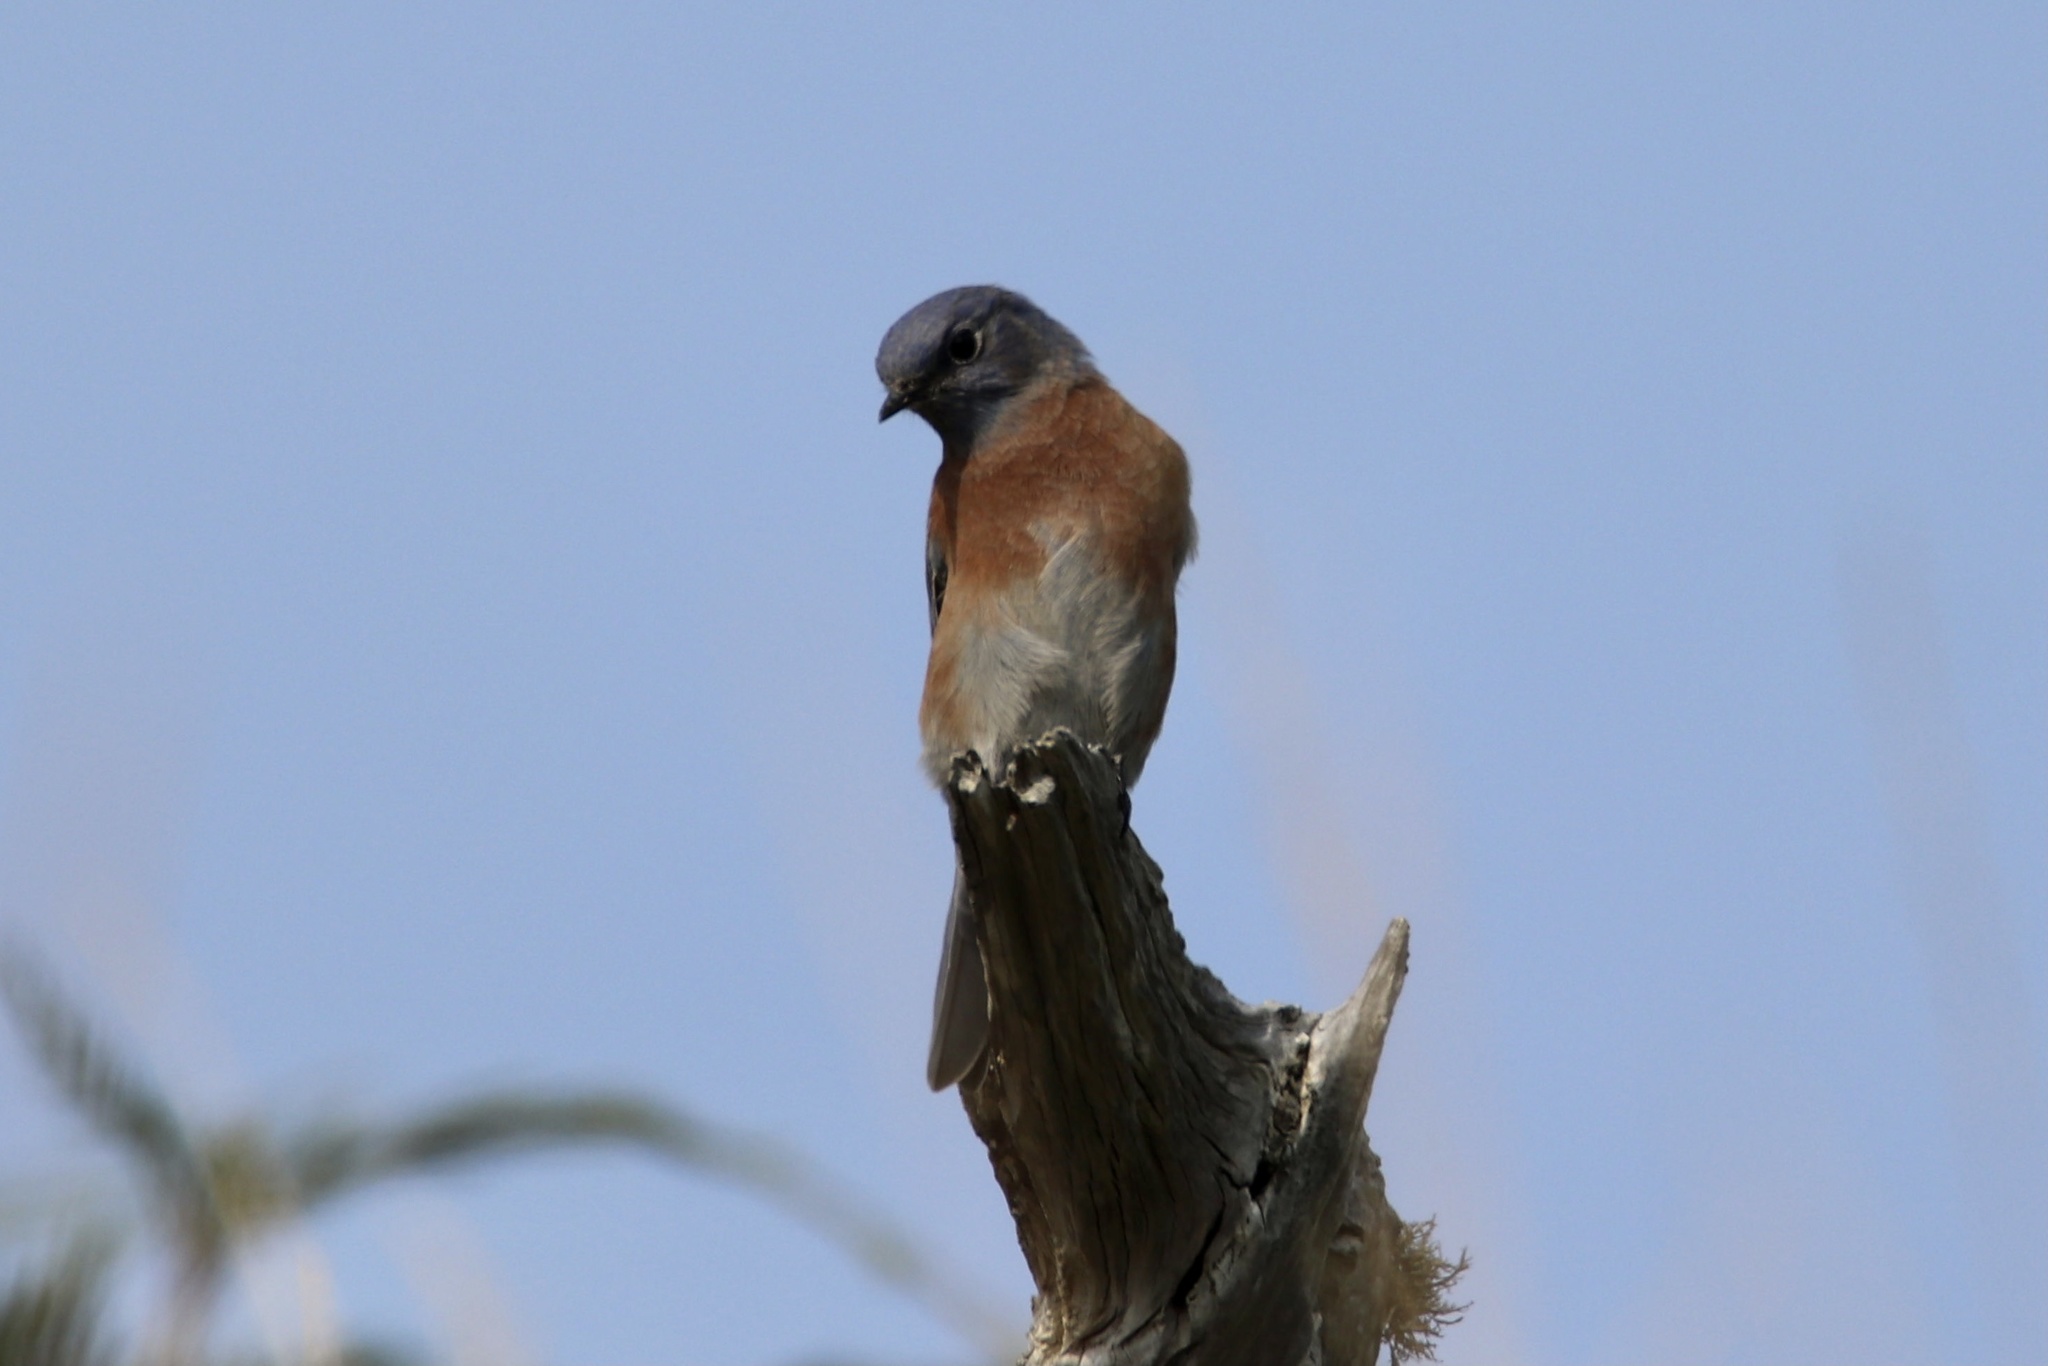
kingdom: Animalia
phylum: Chordata
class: Aves
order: Passeriformes
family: Turdidae
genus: Sialia
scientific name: Sialia mexicana
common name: Western bluebird
